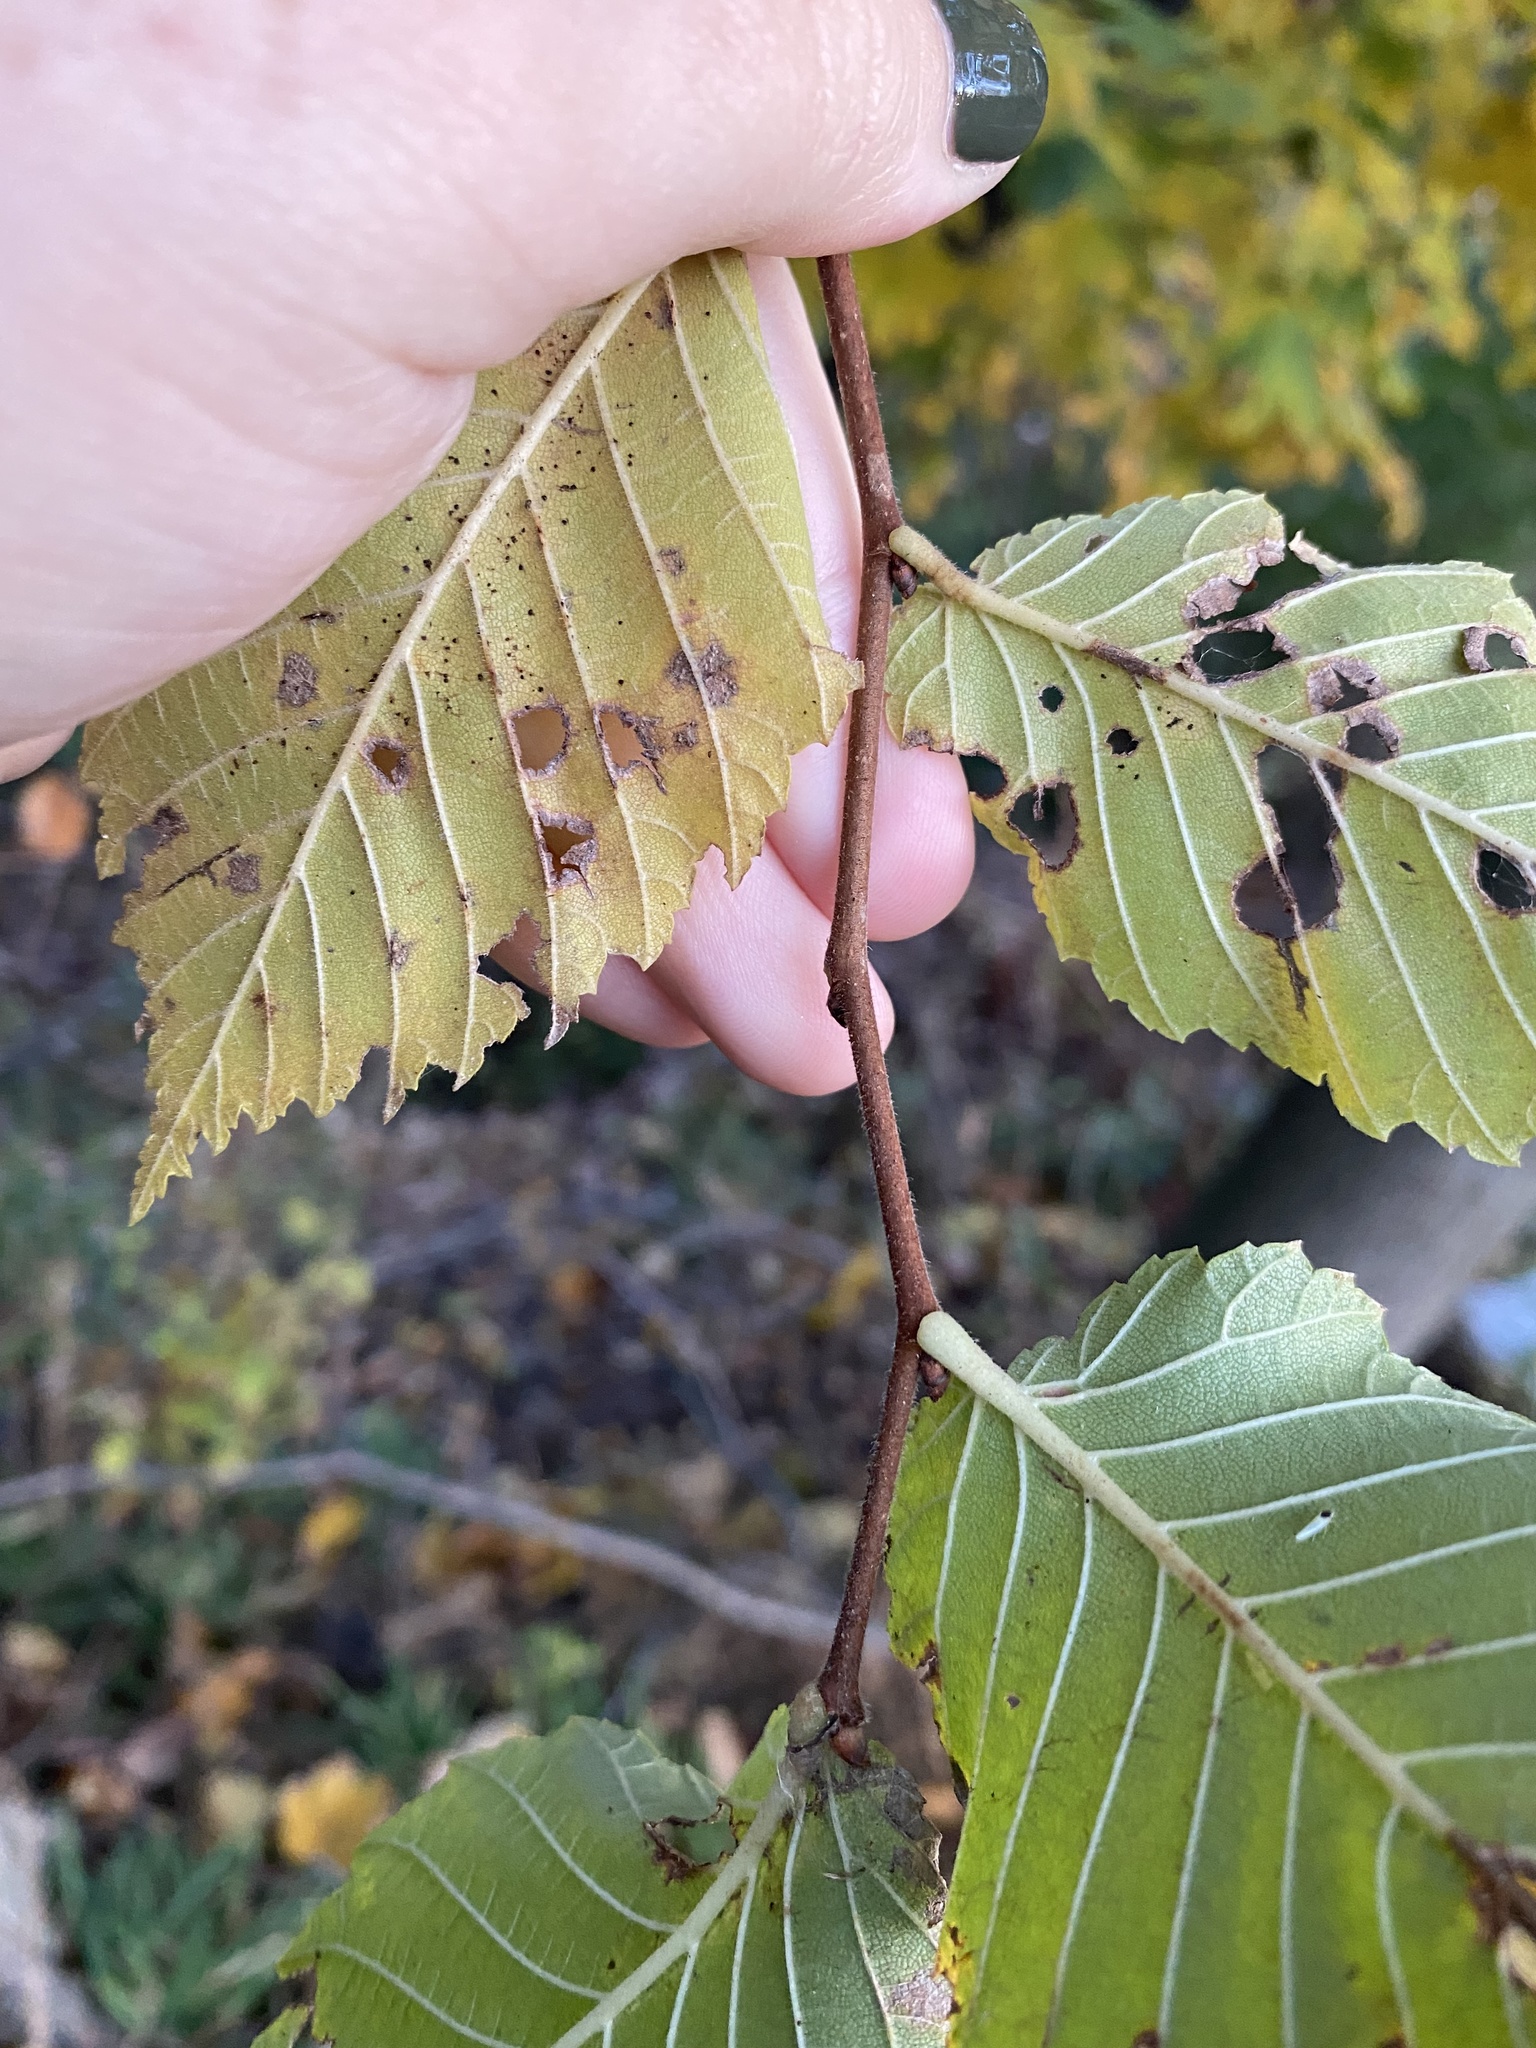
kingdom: Plantae
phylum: Tracheophyta
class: Magnoliopsida
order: Rosales
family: Ulmaceae
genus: Ulmus
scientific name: Ulmus americana
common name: American elm
